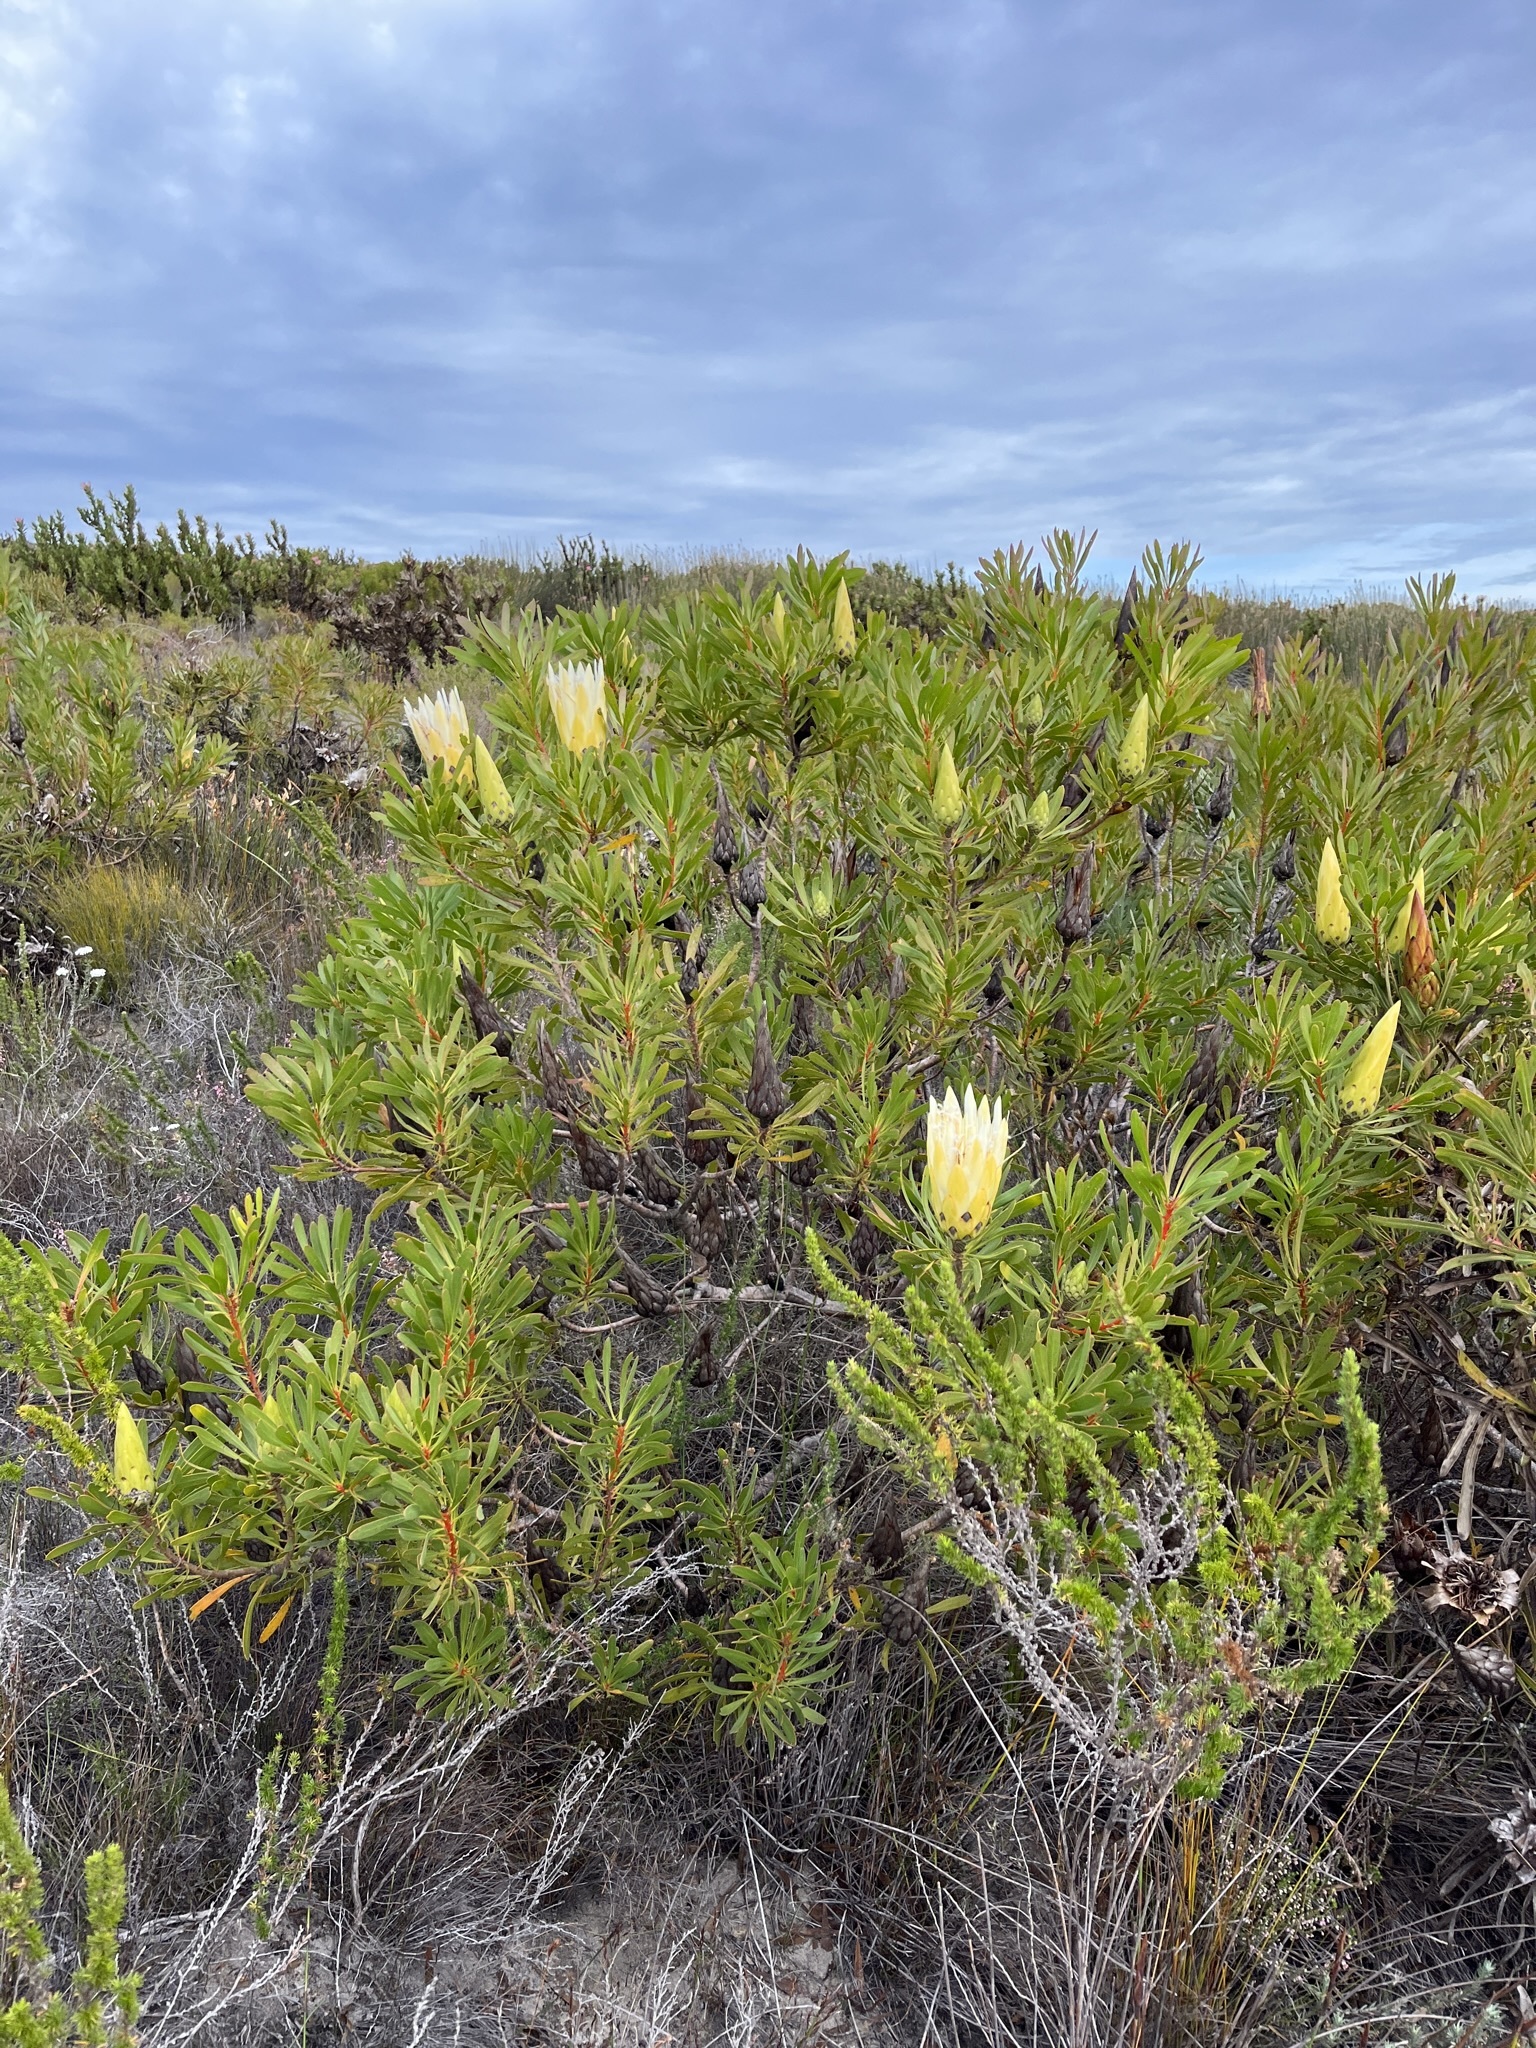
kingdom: Plantae
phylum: Tracheophyta
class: Magnoliopsida
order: Proteales
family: Proteaceae
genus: Protea
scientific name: Protea repens
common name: Sugarbush
